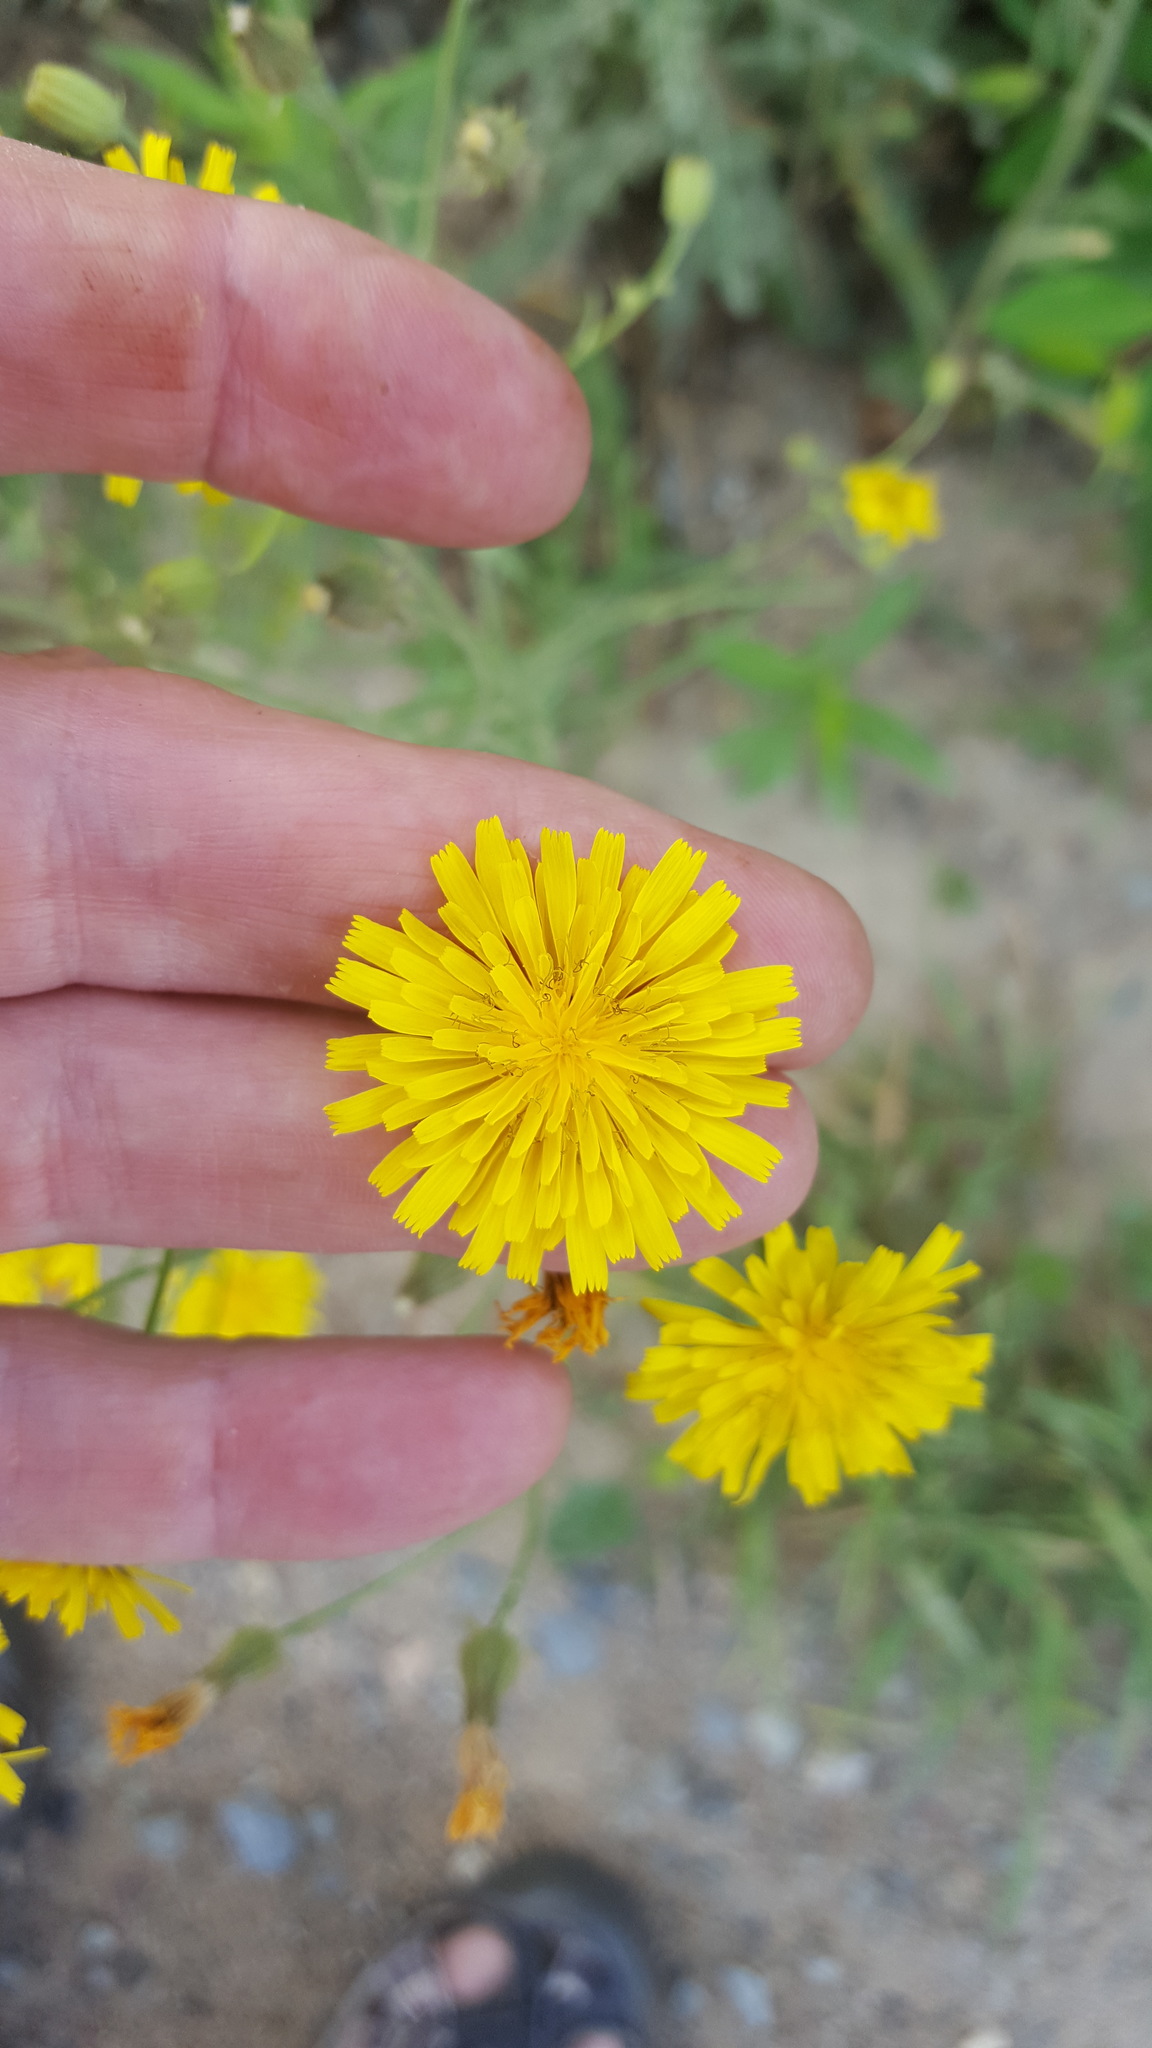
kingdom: Plantae
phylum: Tracheophyta
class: Magnoliopsida
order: Asterales
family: Asteraceae
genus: Crepis
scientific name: Crepis tectorum
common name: Narrow-leaved hawk's-beard
